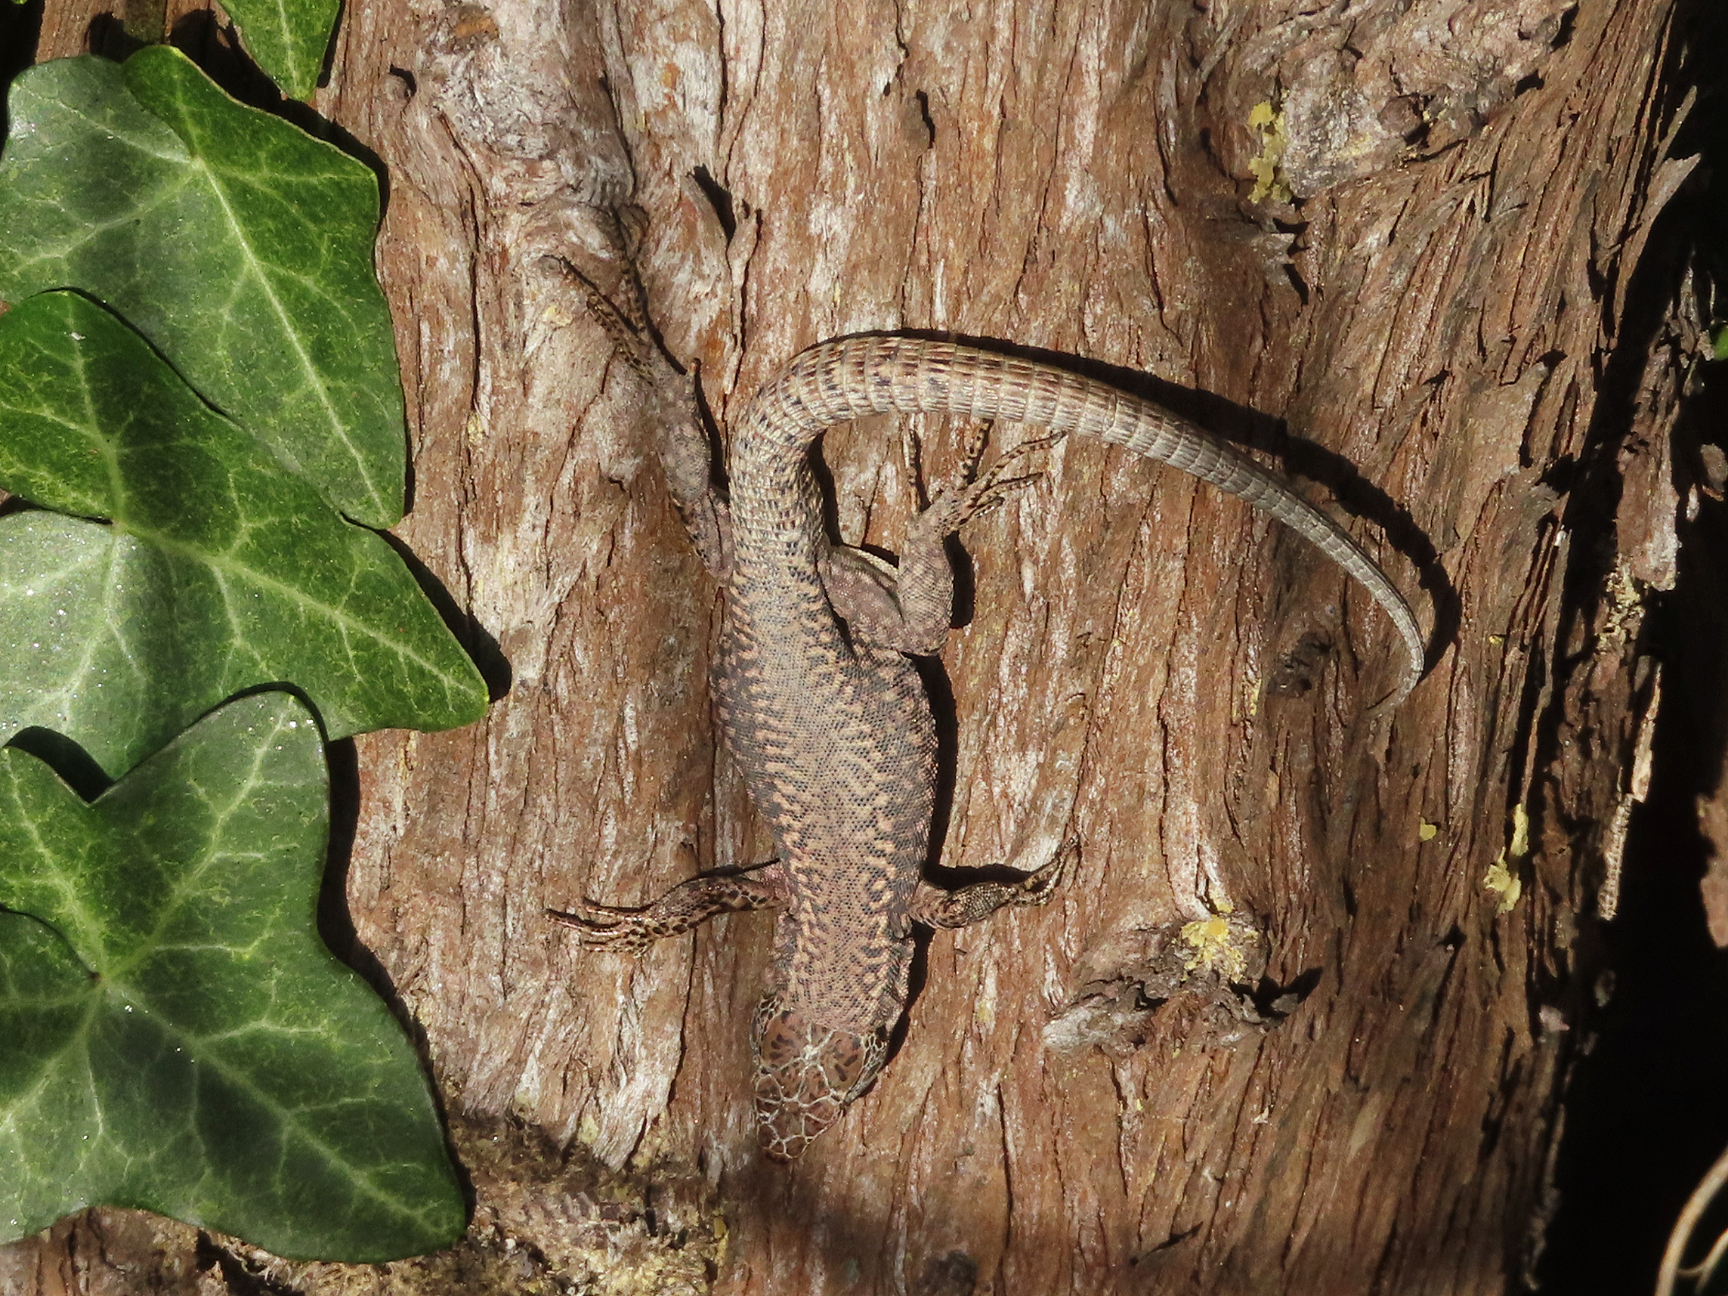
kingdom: Animalia
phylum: Chordata
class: Squamata
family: Lacertidae
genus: Podarcis
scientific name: Podarcis muralis
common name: Common wall lizard
